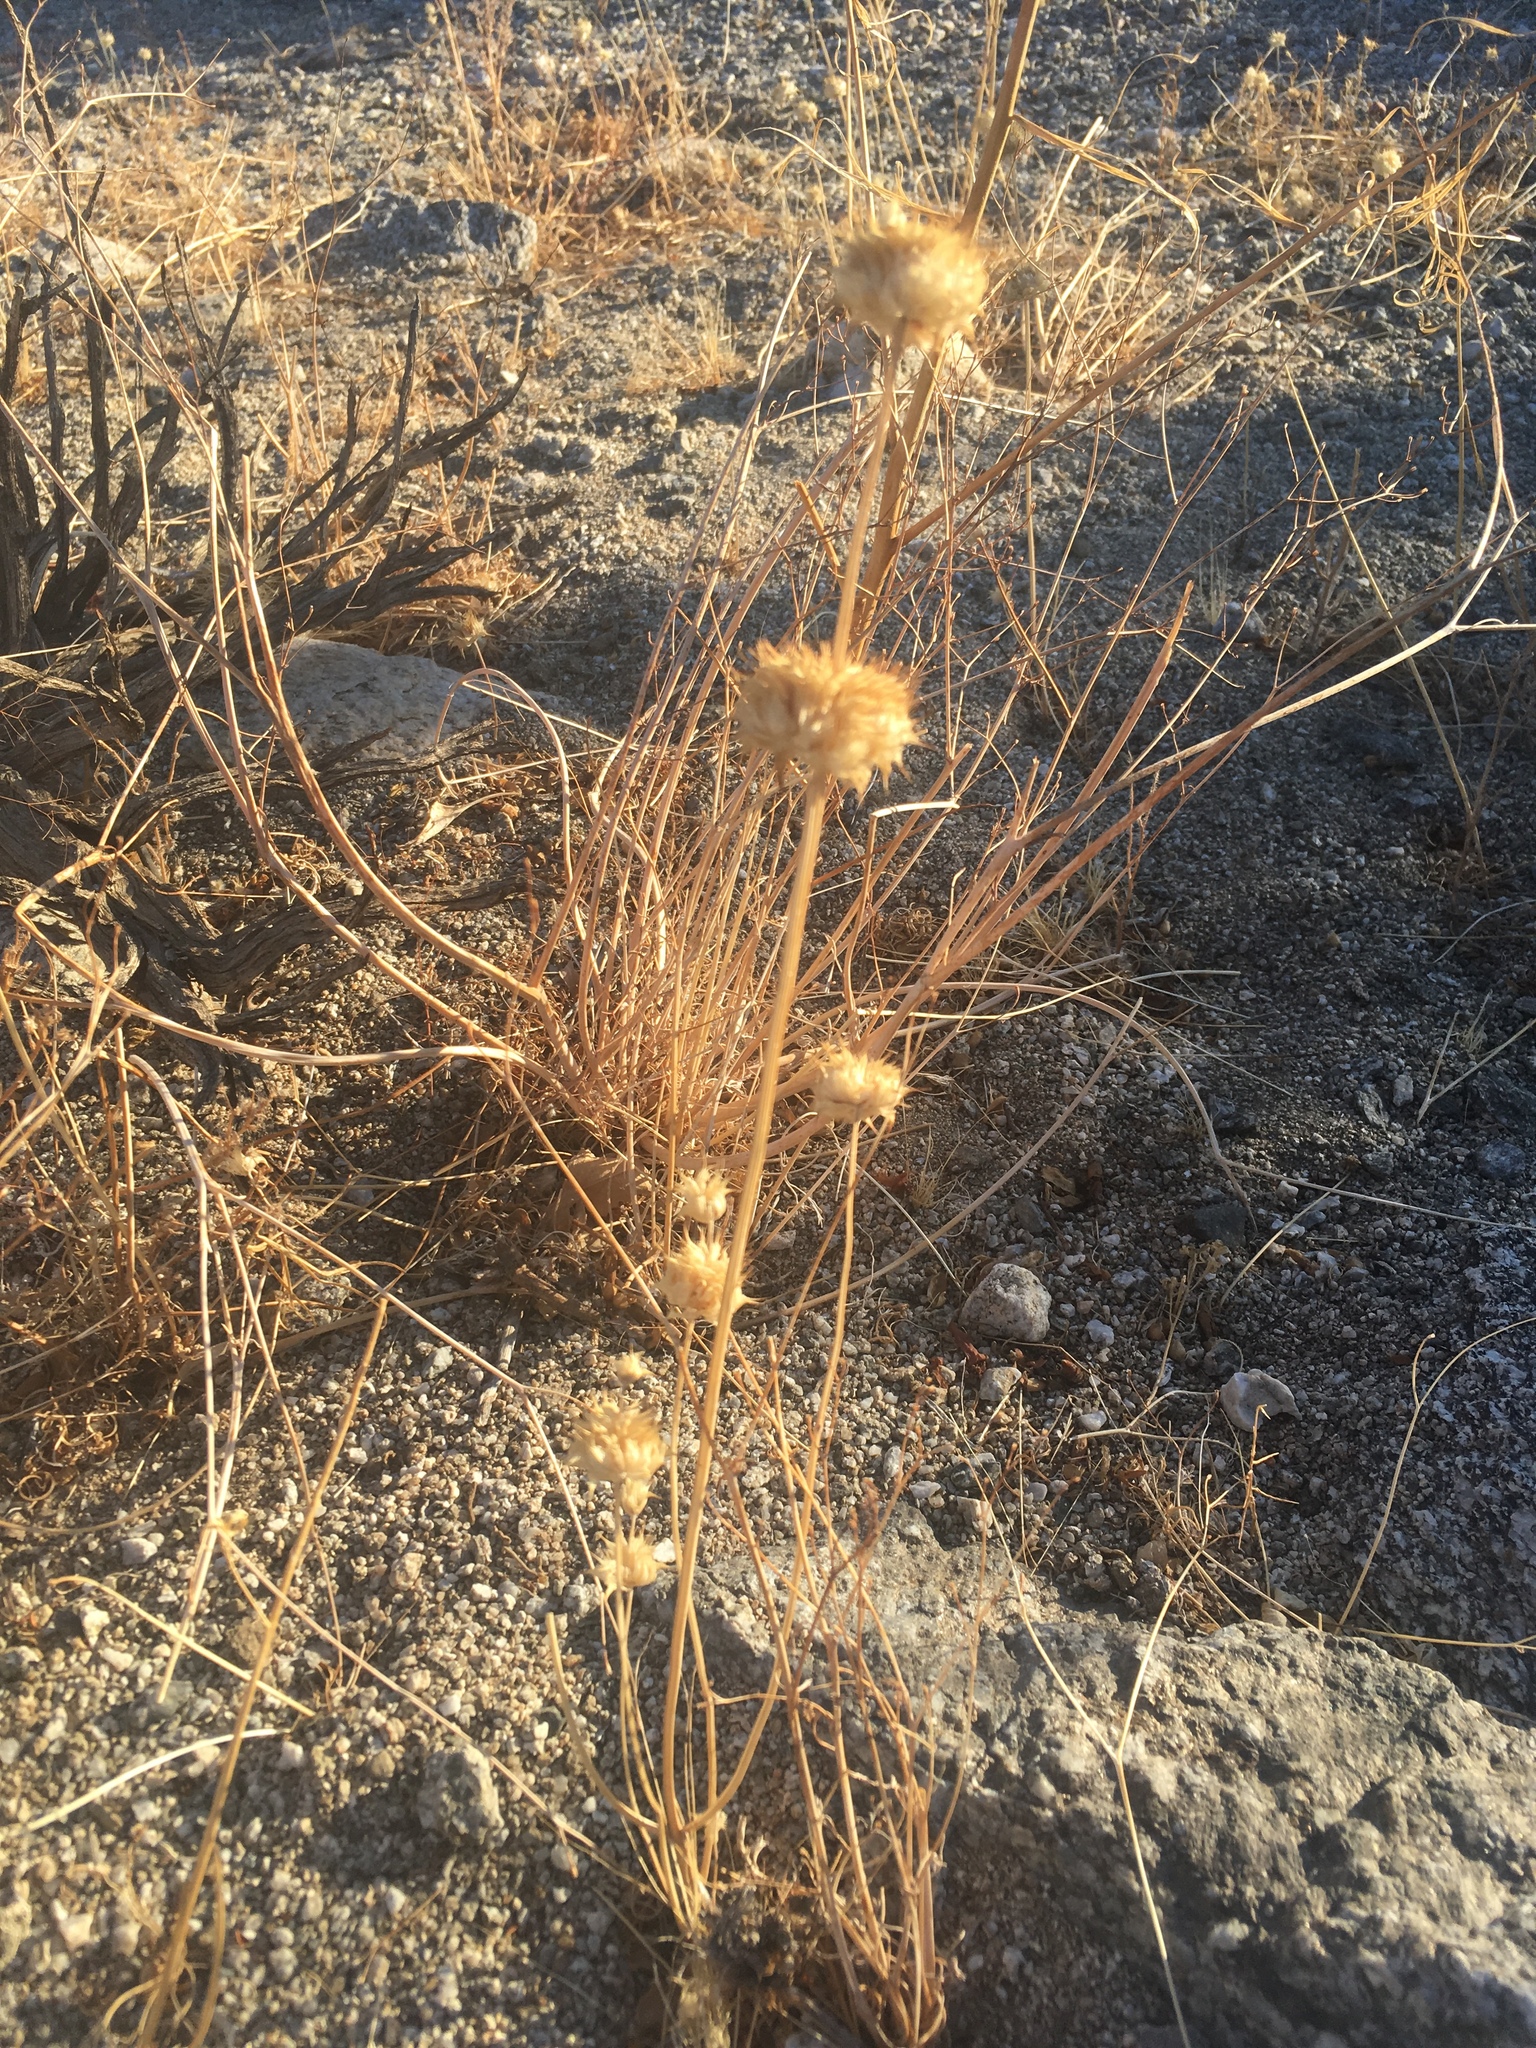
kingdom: Plantae
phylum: Tracheophyta
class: Magnoliopsida
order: Lamiales
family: Lamiaceae
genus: Salvia
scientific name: Salvia columbariae
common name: Chia
